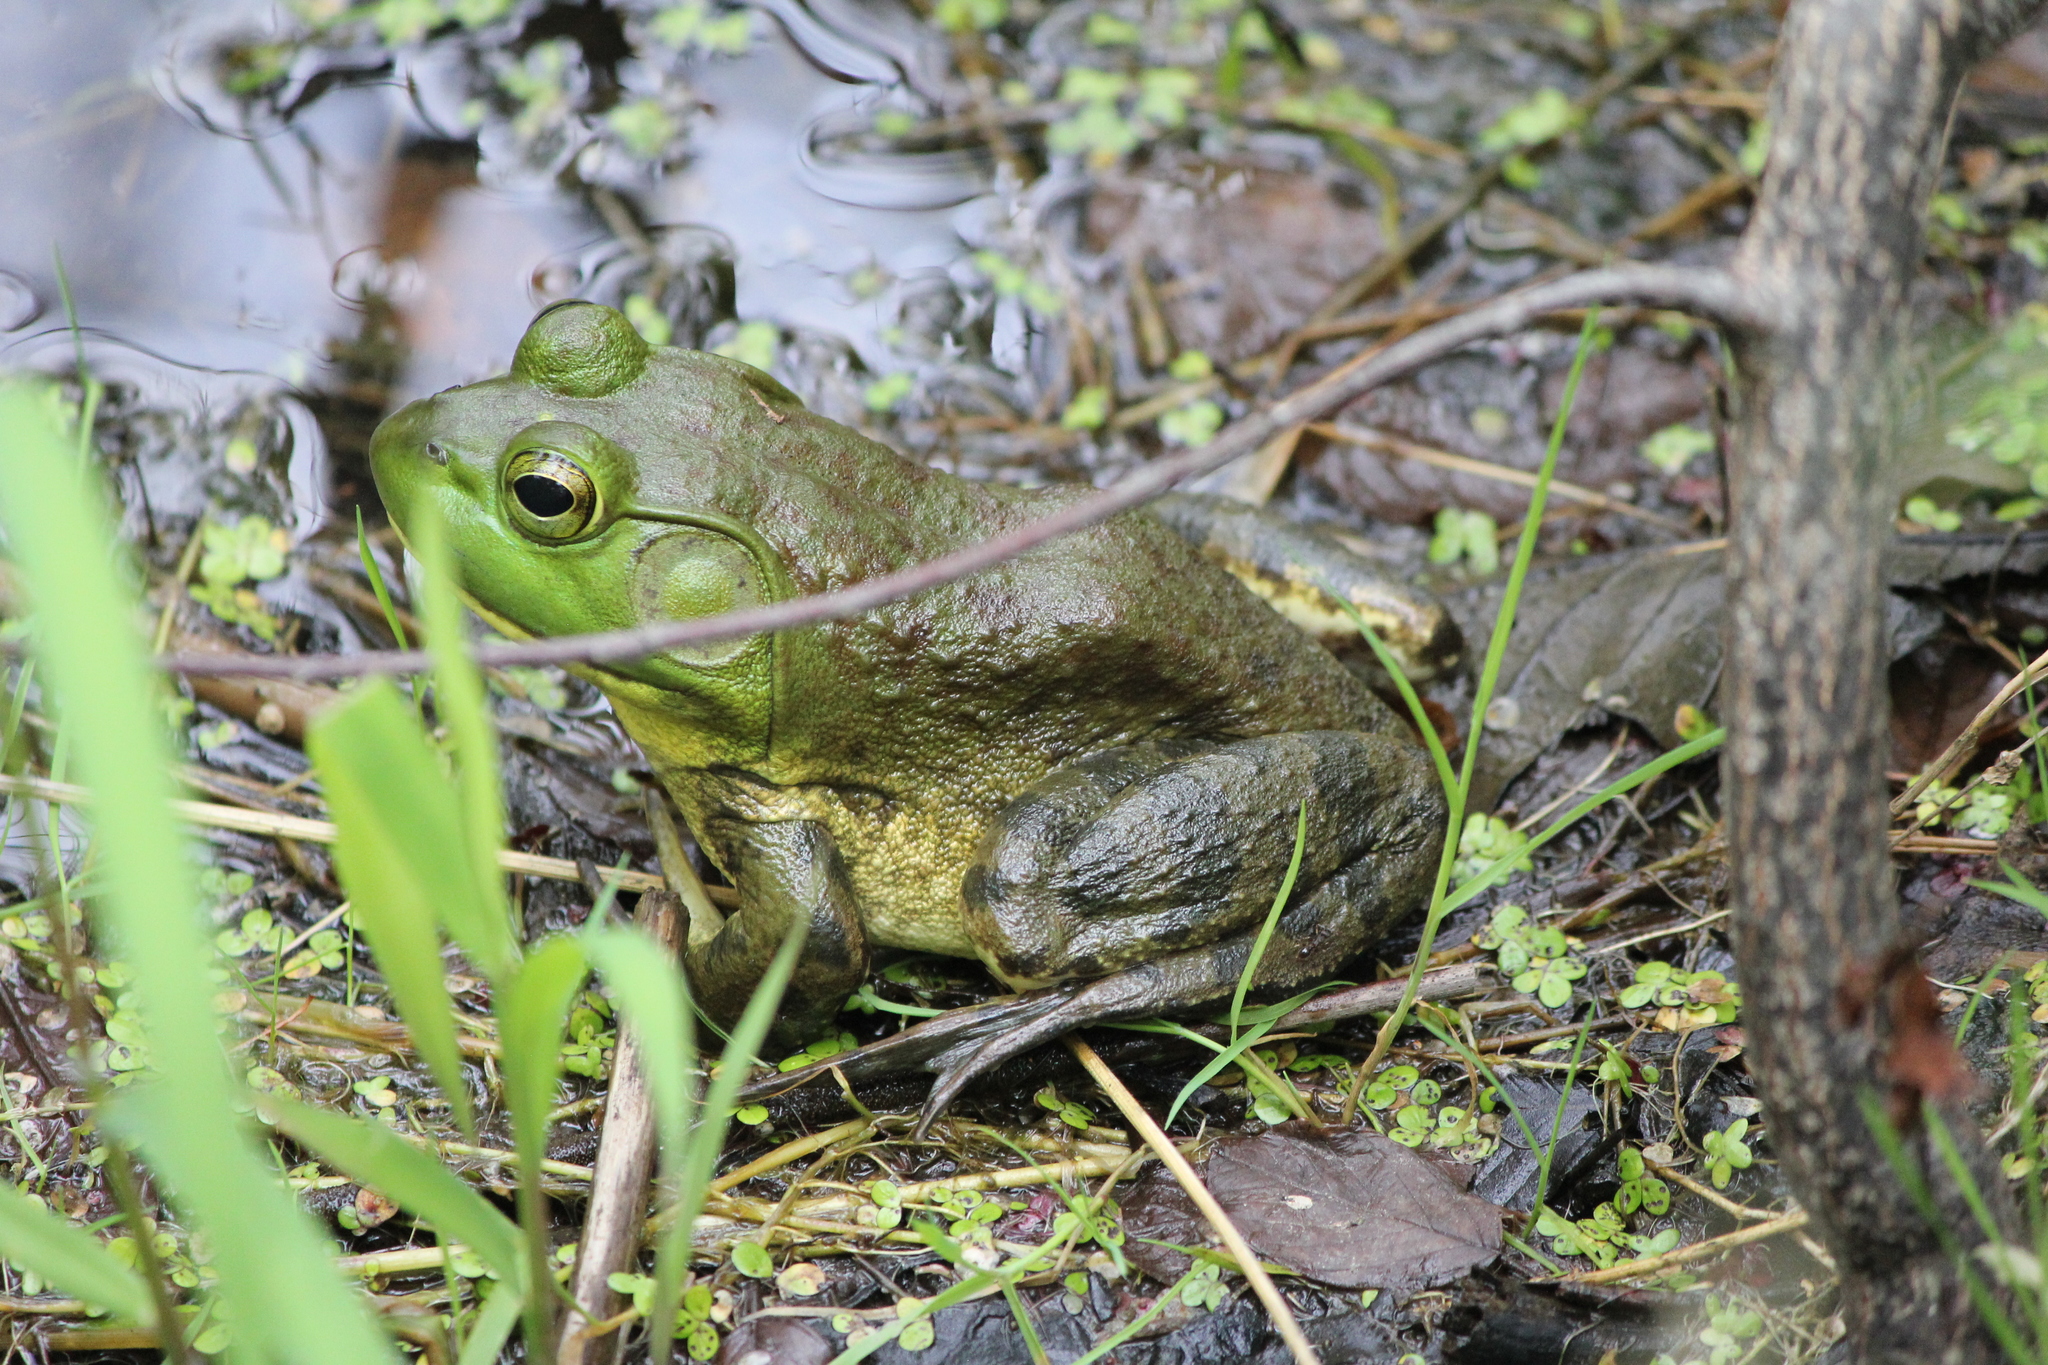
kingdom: Animalia
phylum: Chordata
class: Amphibia
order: Anura
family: Ranidae
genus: Lithobates
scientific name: Lithobates catesbeianus
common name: American bullfrog
